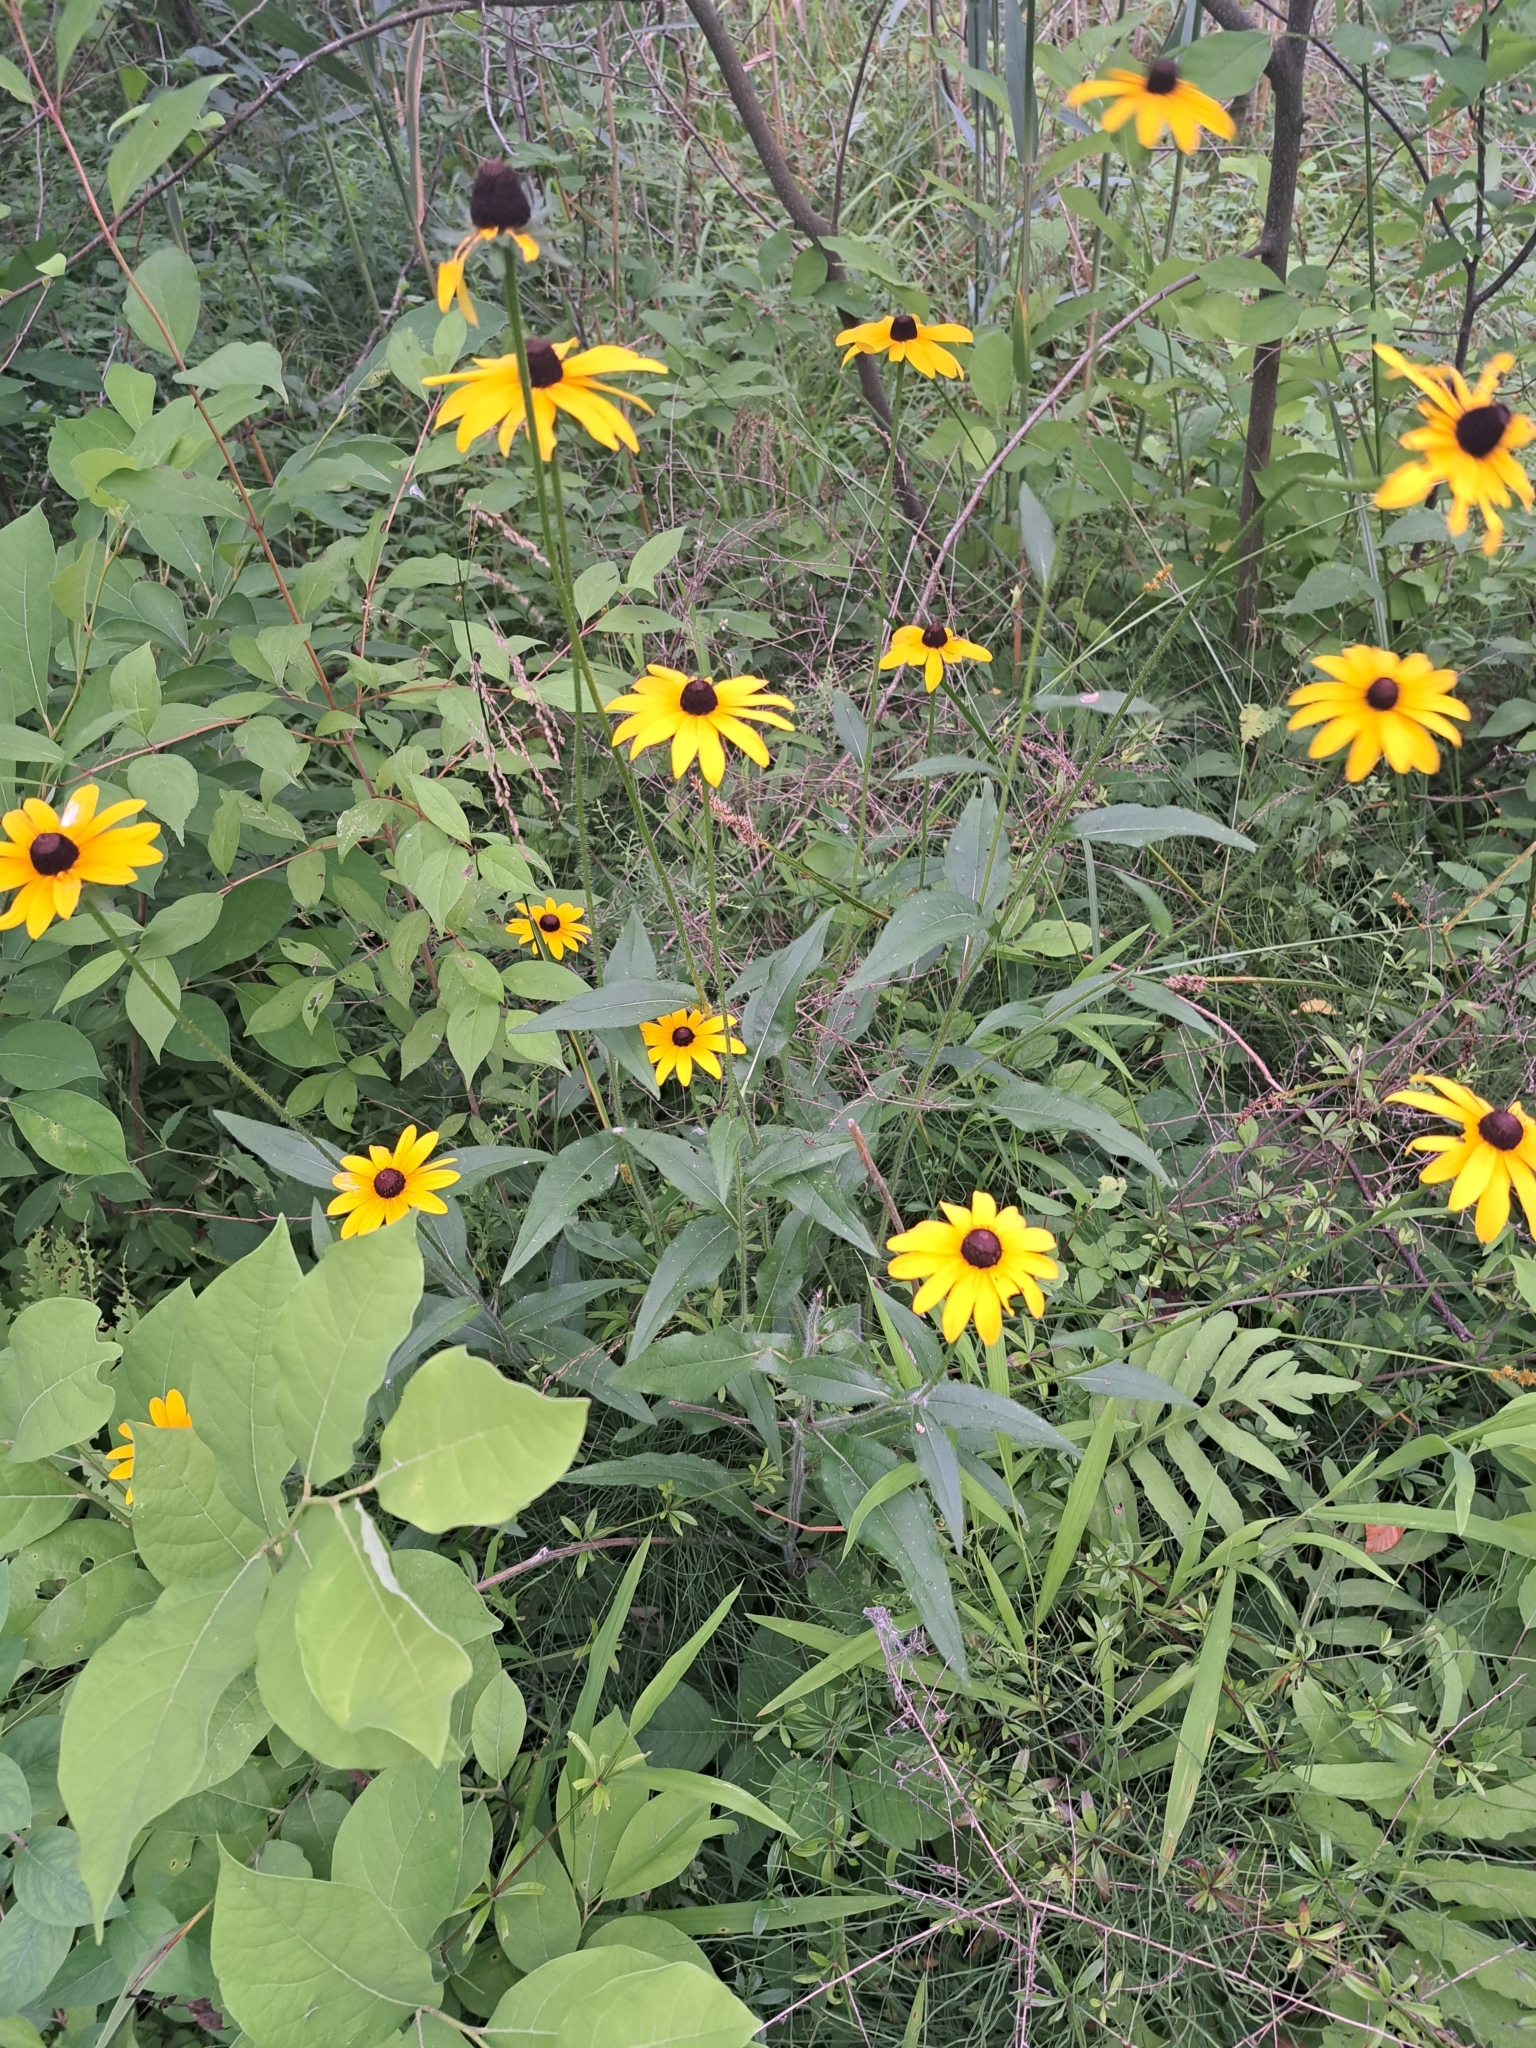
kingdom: Plantae
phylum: Tracheophyta
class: Magnoliopsida
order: Asterales
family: Asteraceae
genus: Rudbeckia
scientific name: Rudbeckia hirta
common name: Black-eyed-susan
